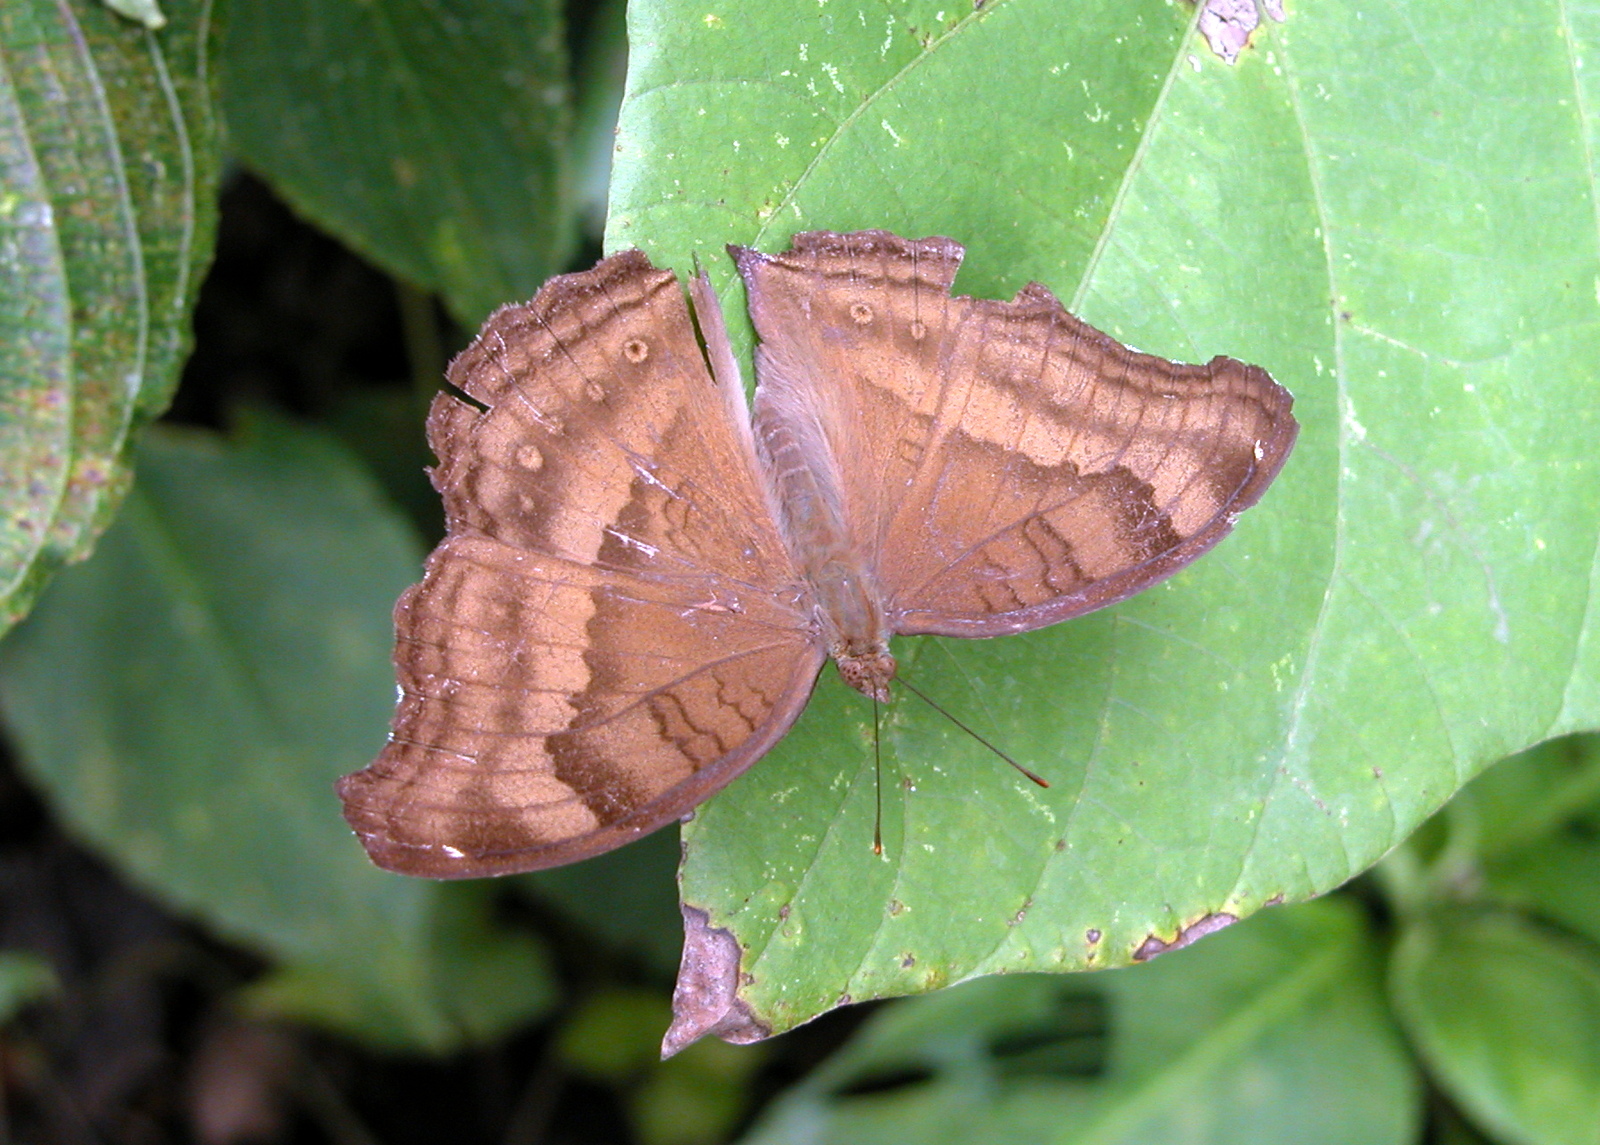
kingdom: Animalia
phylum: Arthropoda
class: Insecta
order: Lepidoptera
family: Nymphalidae
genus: Junonia
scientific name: Junonia iphita
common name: Chocolate pansy
